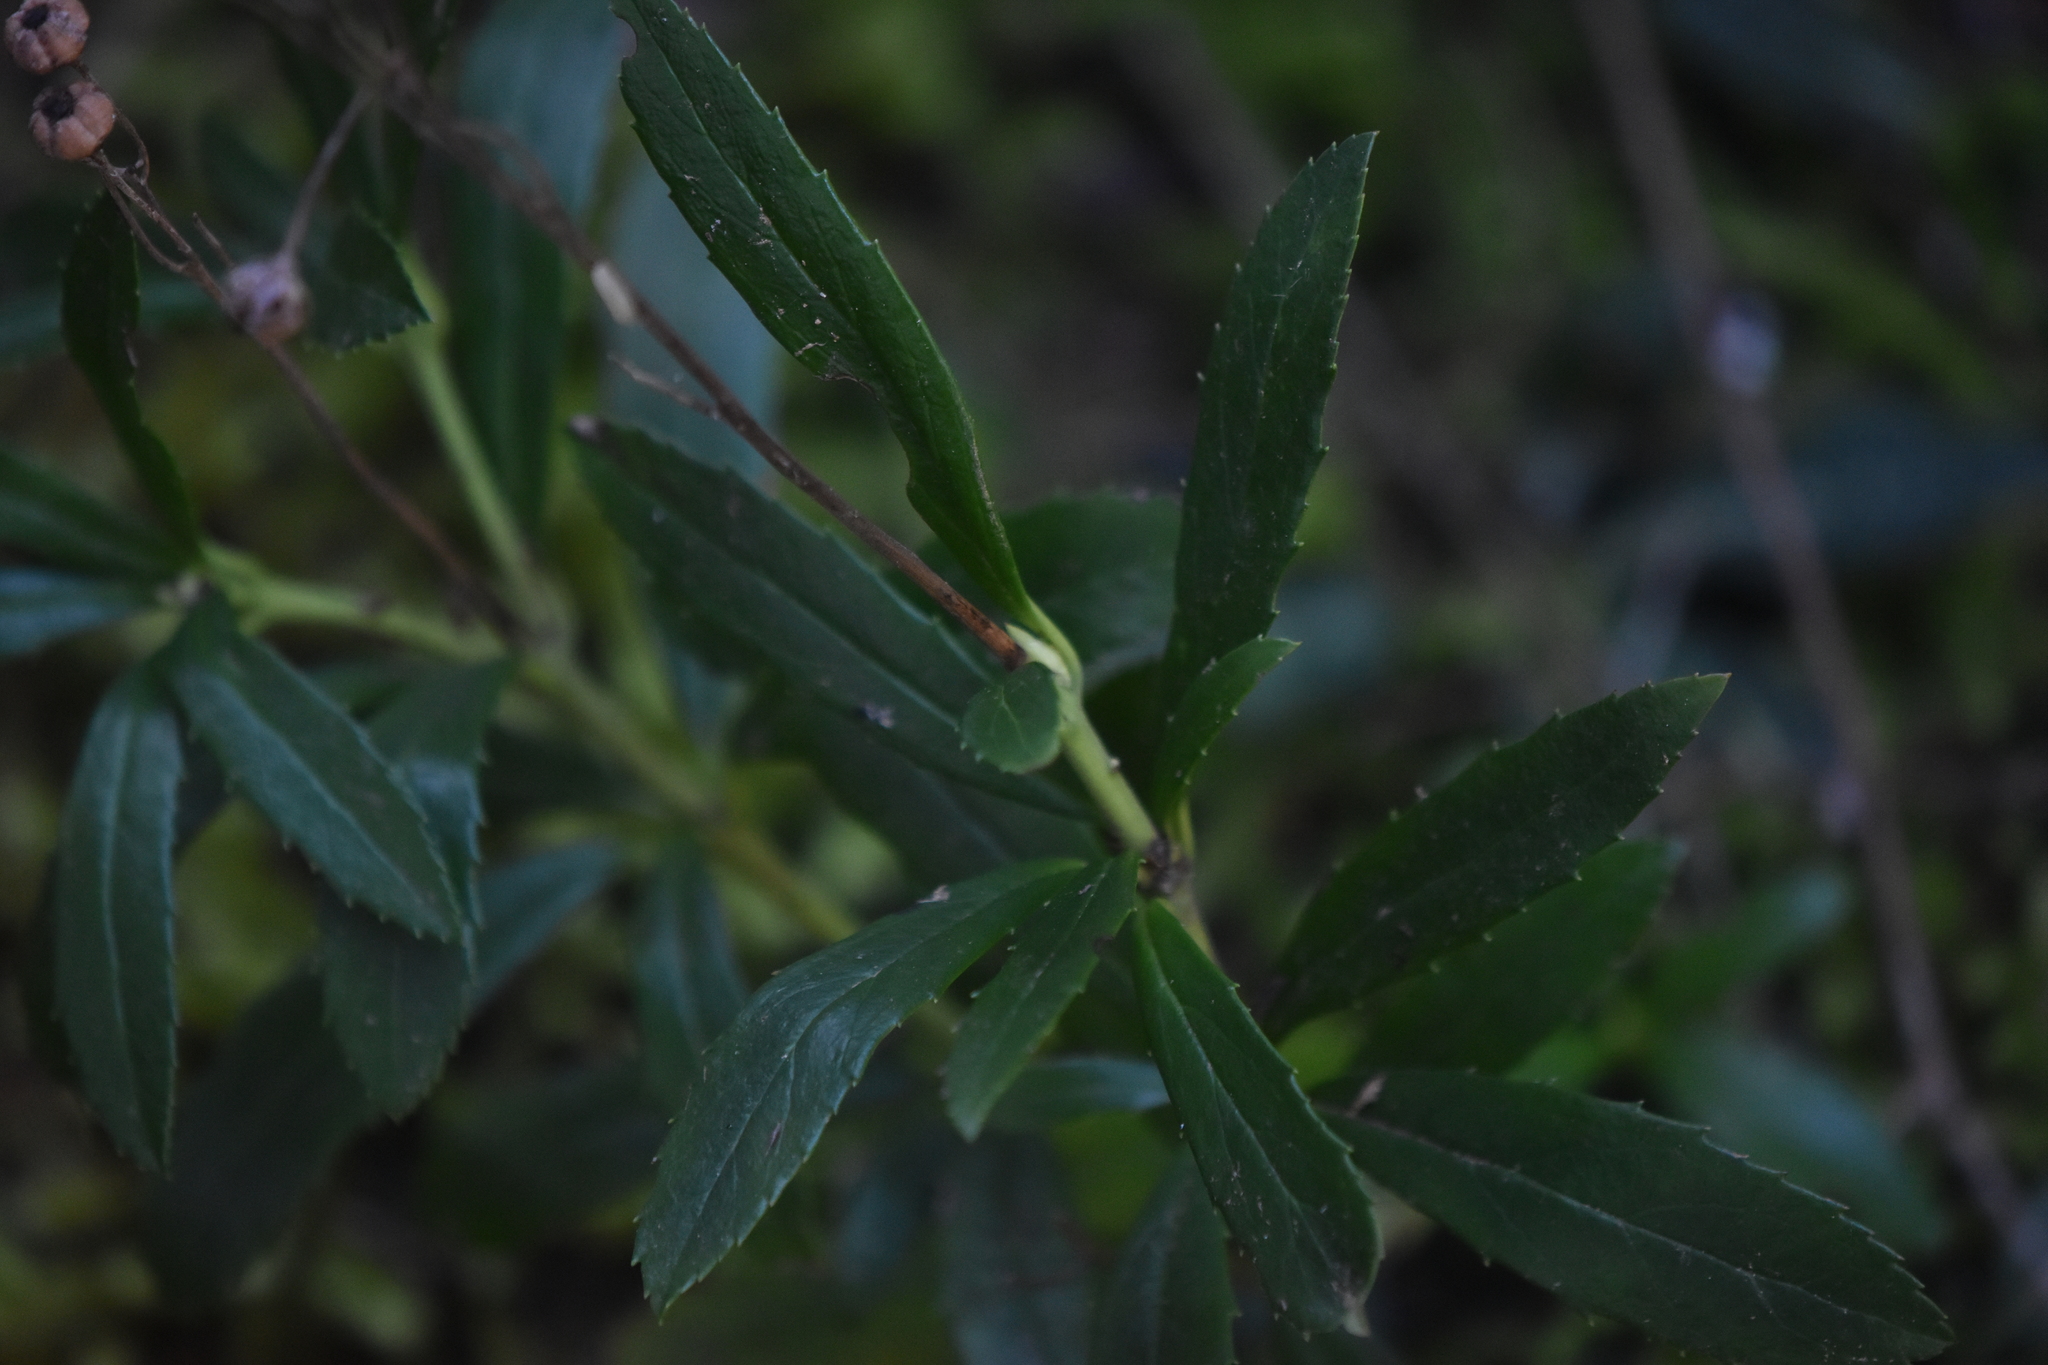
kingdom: Plantae
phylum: Tracheophyta
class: Magnoliopsida
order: Ericales
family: Ericaceae
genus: Chimaphila
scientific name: Chimaphila umbellata
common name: Pipsissewa
